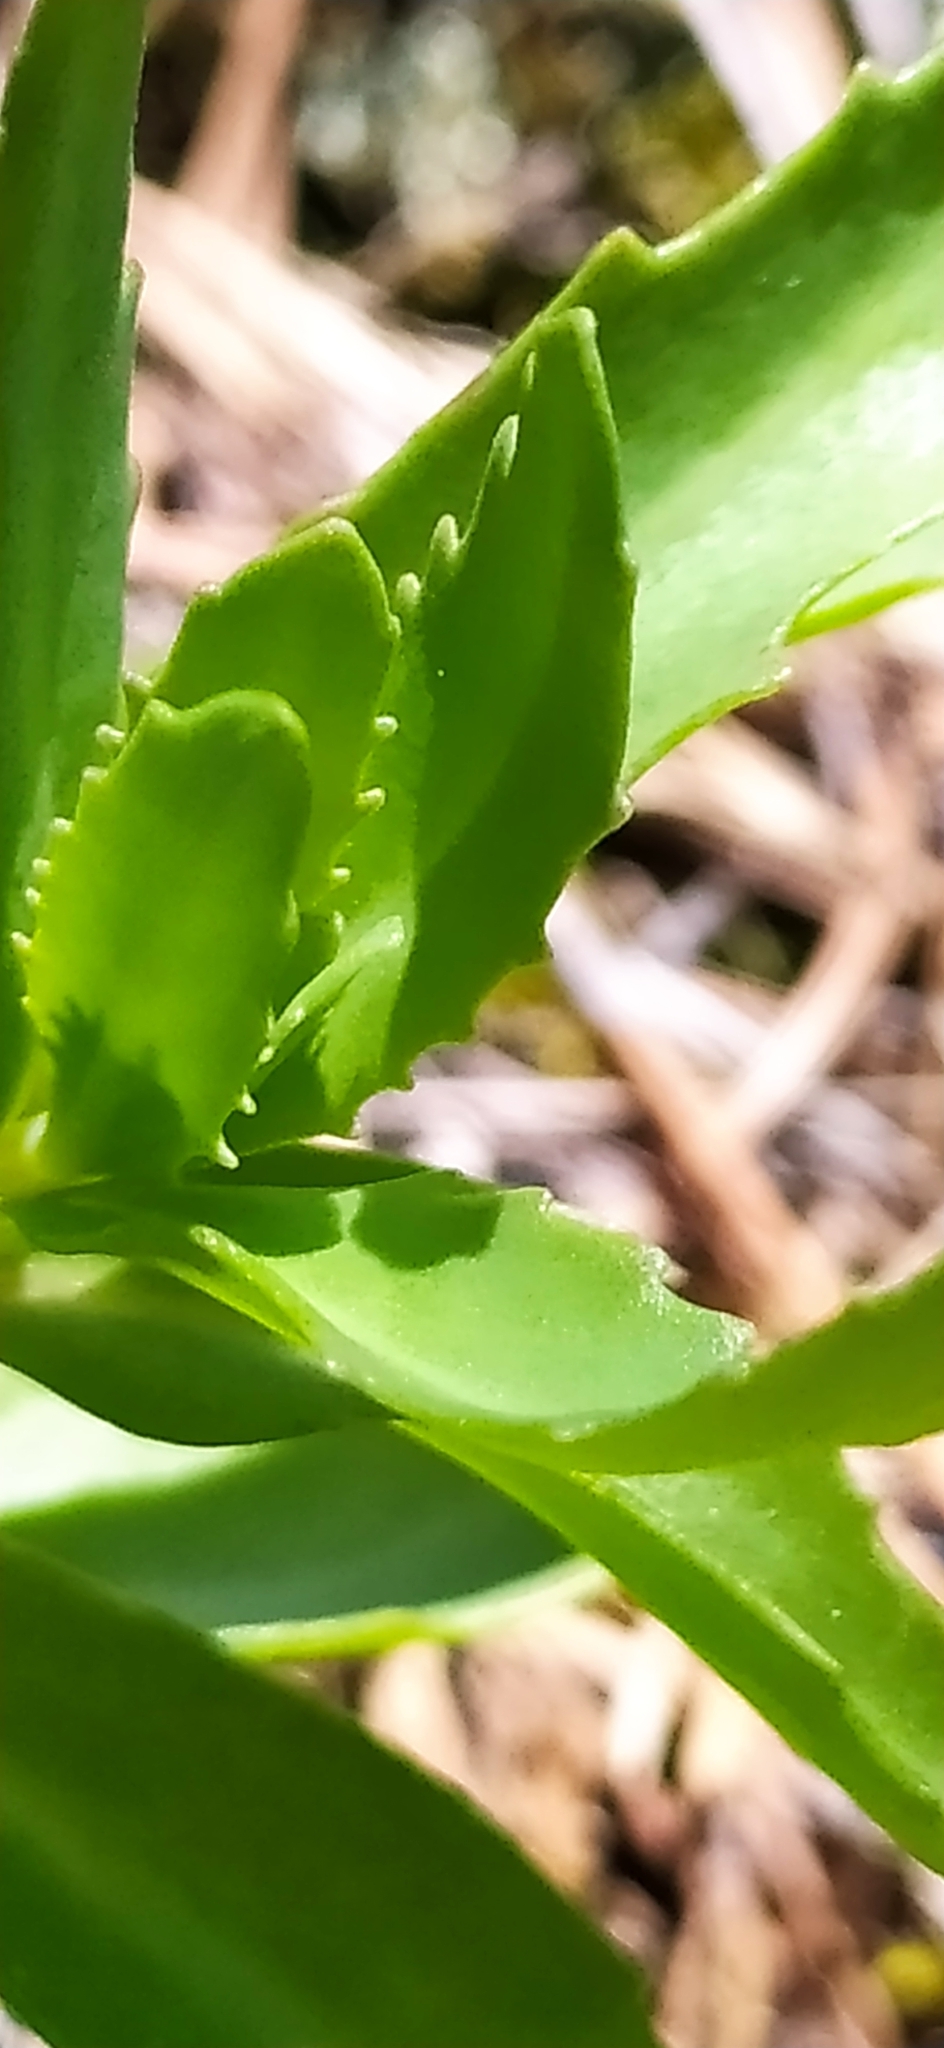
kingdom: Plantae
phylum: Tracheophyta
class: Magnoliopsida
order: Saxifragales
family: Crassulaceae
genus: Hylotelephium
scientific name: Hylotelephium telephium
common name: Live-forever
